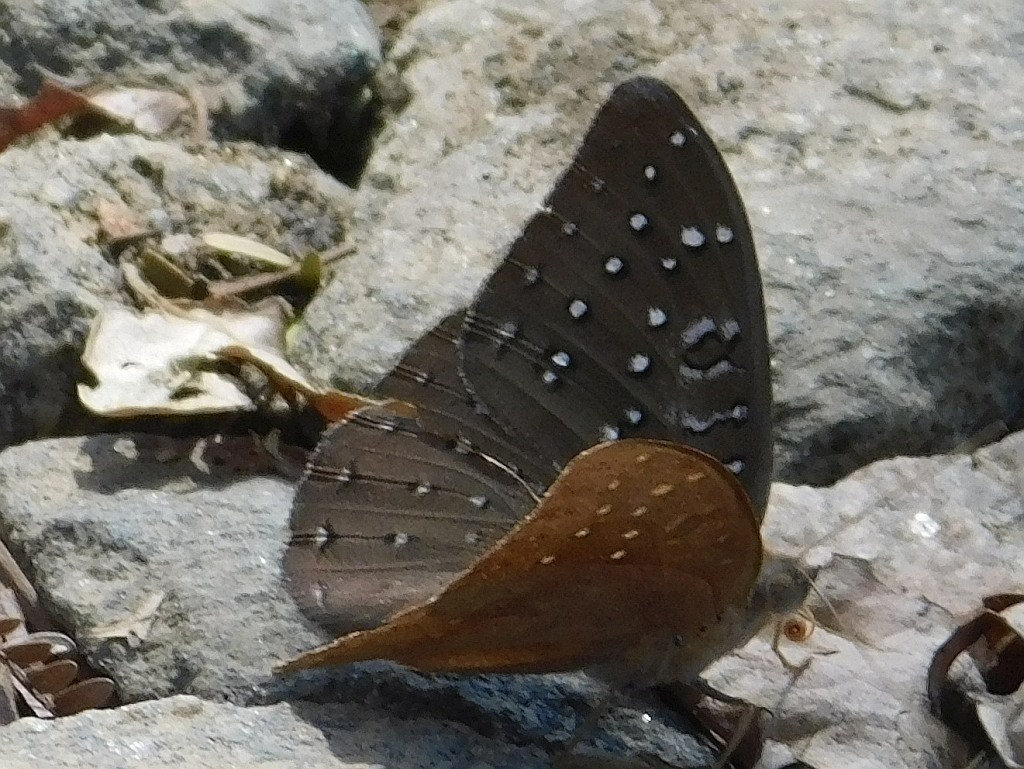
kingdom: Animalia
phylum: Arthropoda
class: Insecta
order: Lepidoptera
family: Nymphalidae
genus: Hamanumida
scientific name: Hamanumida daedalus
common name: Guinea-fowl butterfly
